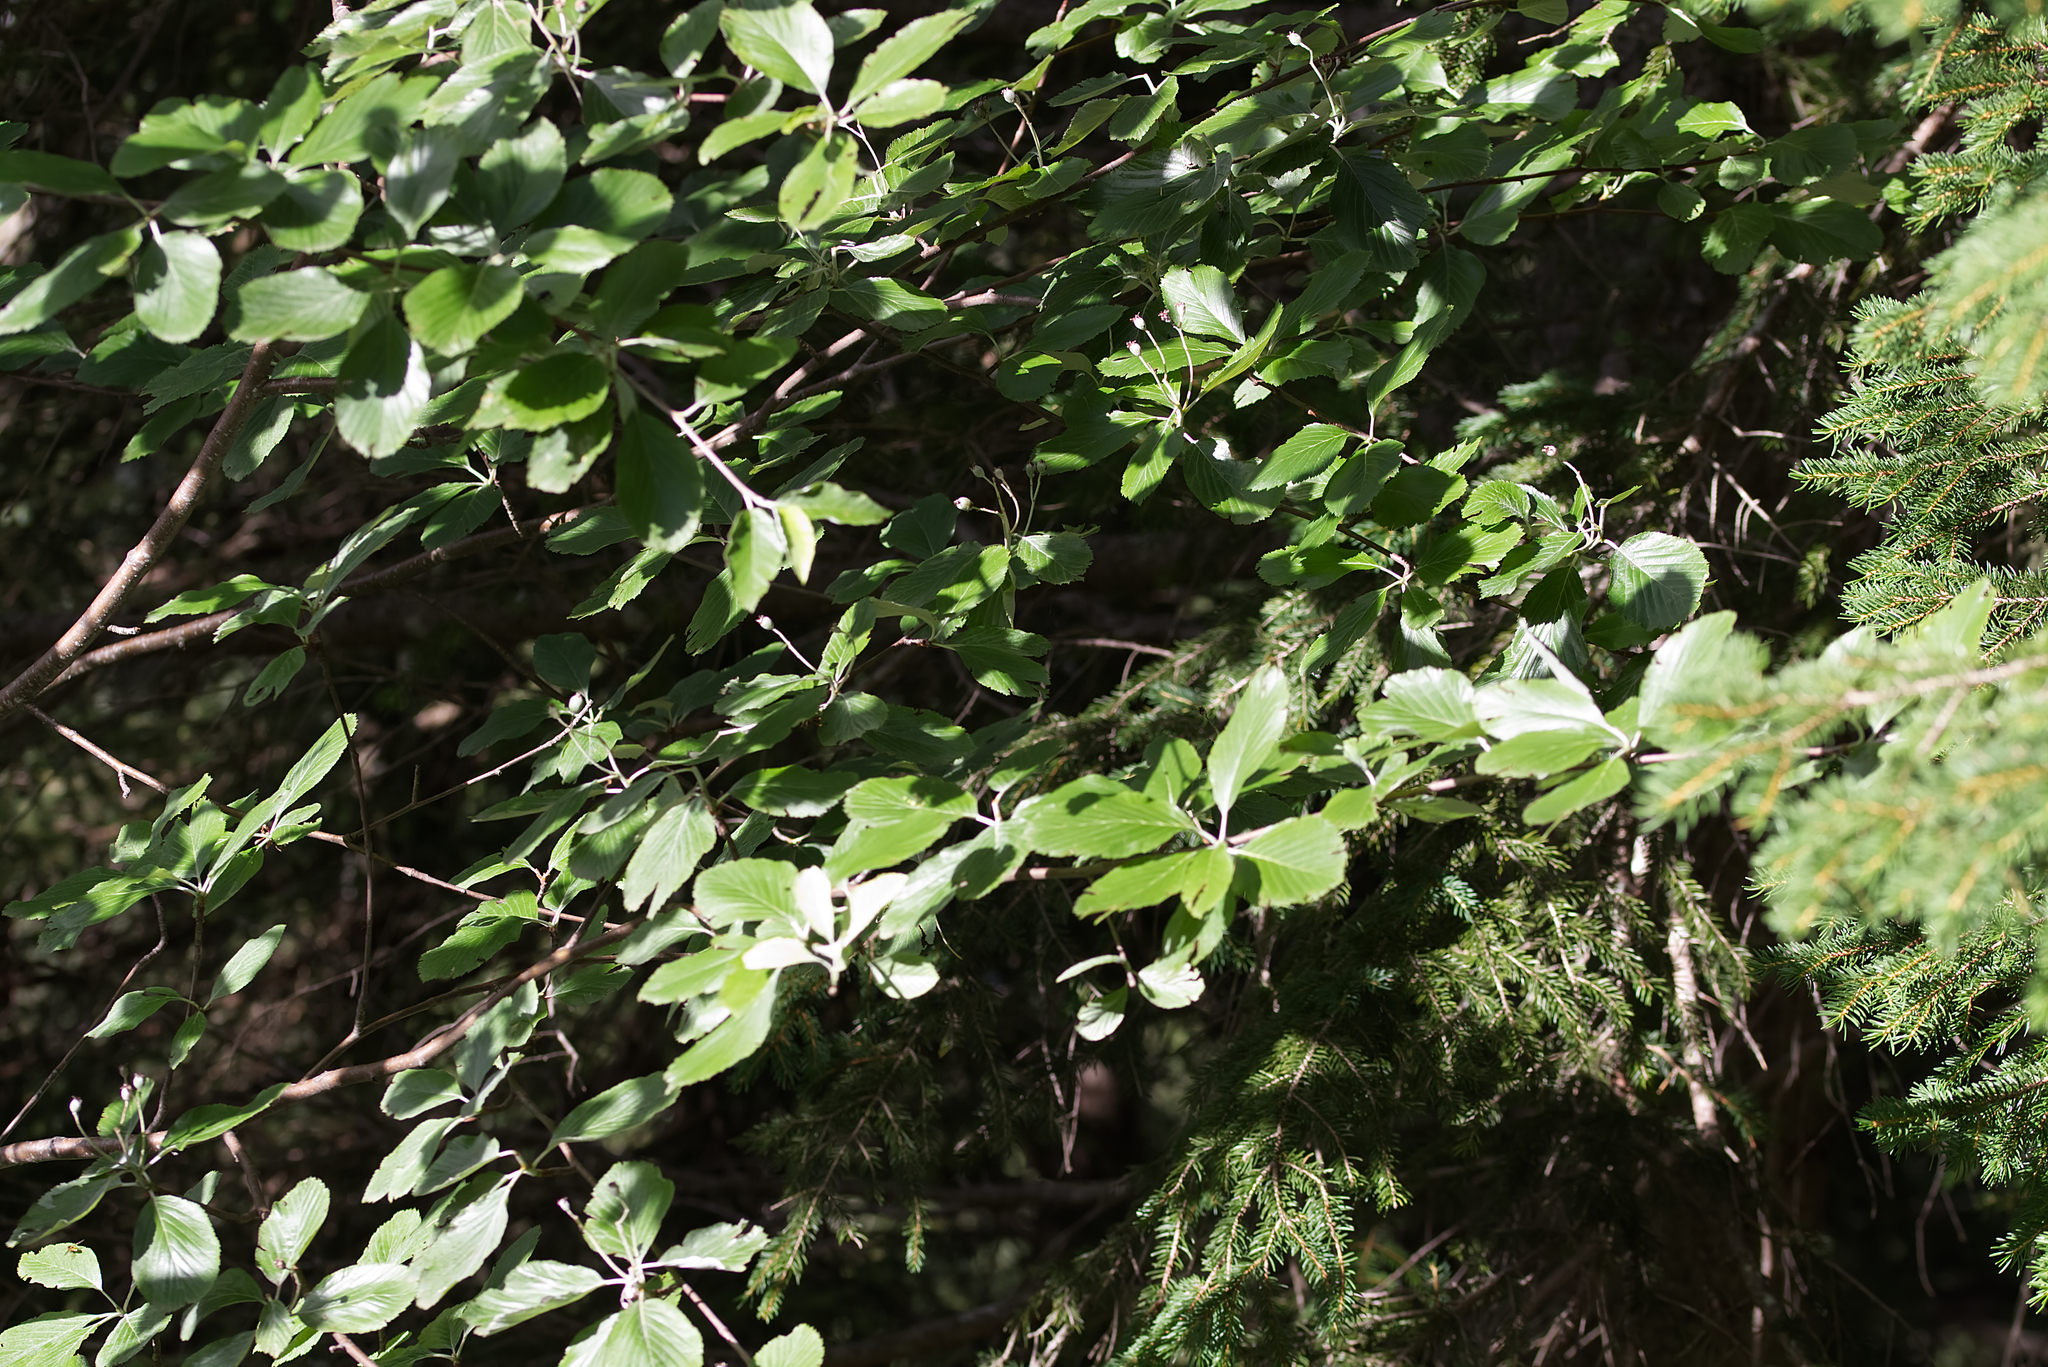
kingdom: Plantae
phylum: Tracheophyta
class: Magnoliopsida
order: Rosales
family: Rosaceae
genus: Aria
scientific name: Aria edulis
